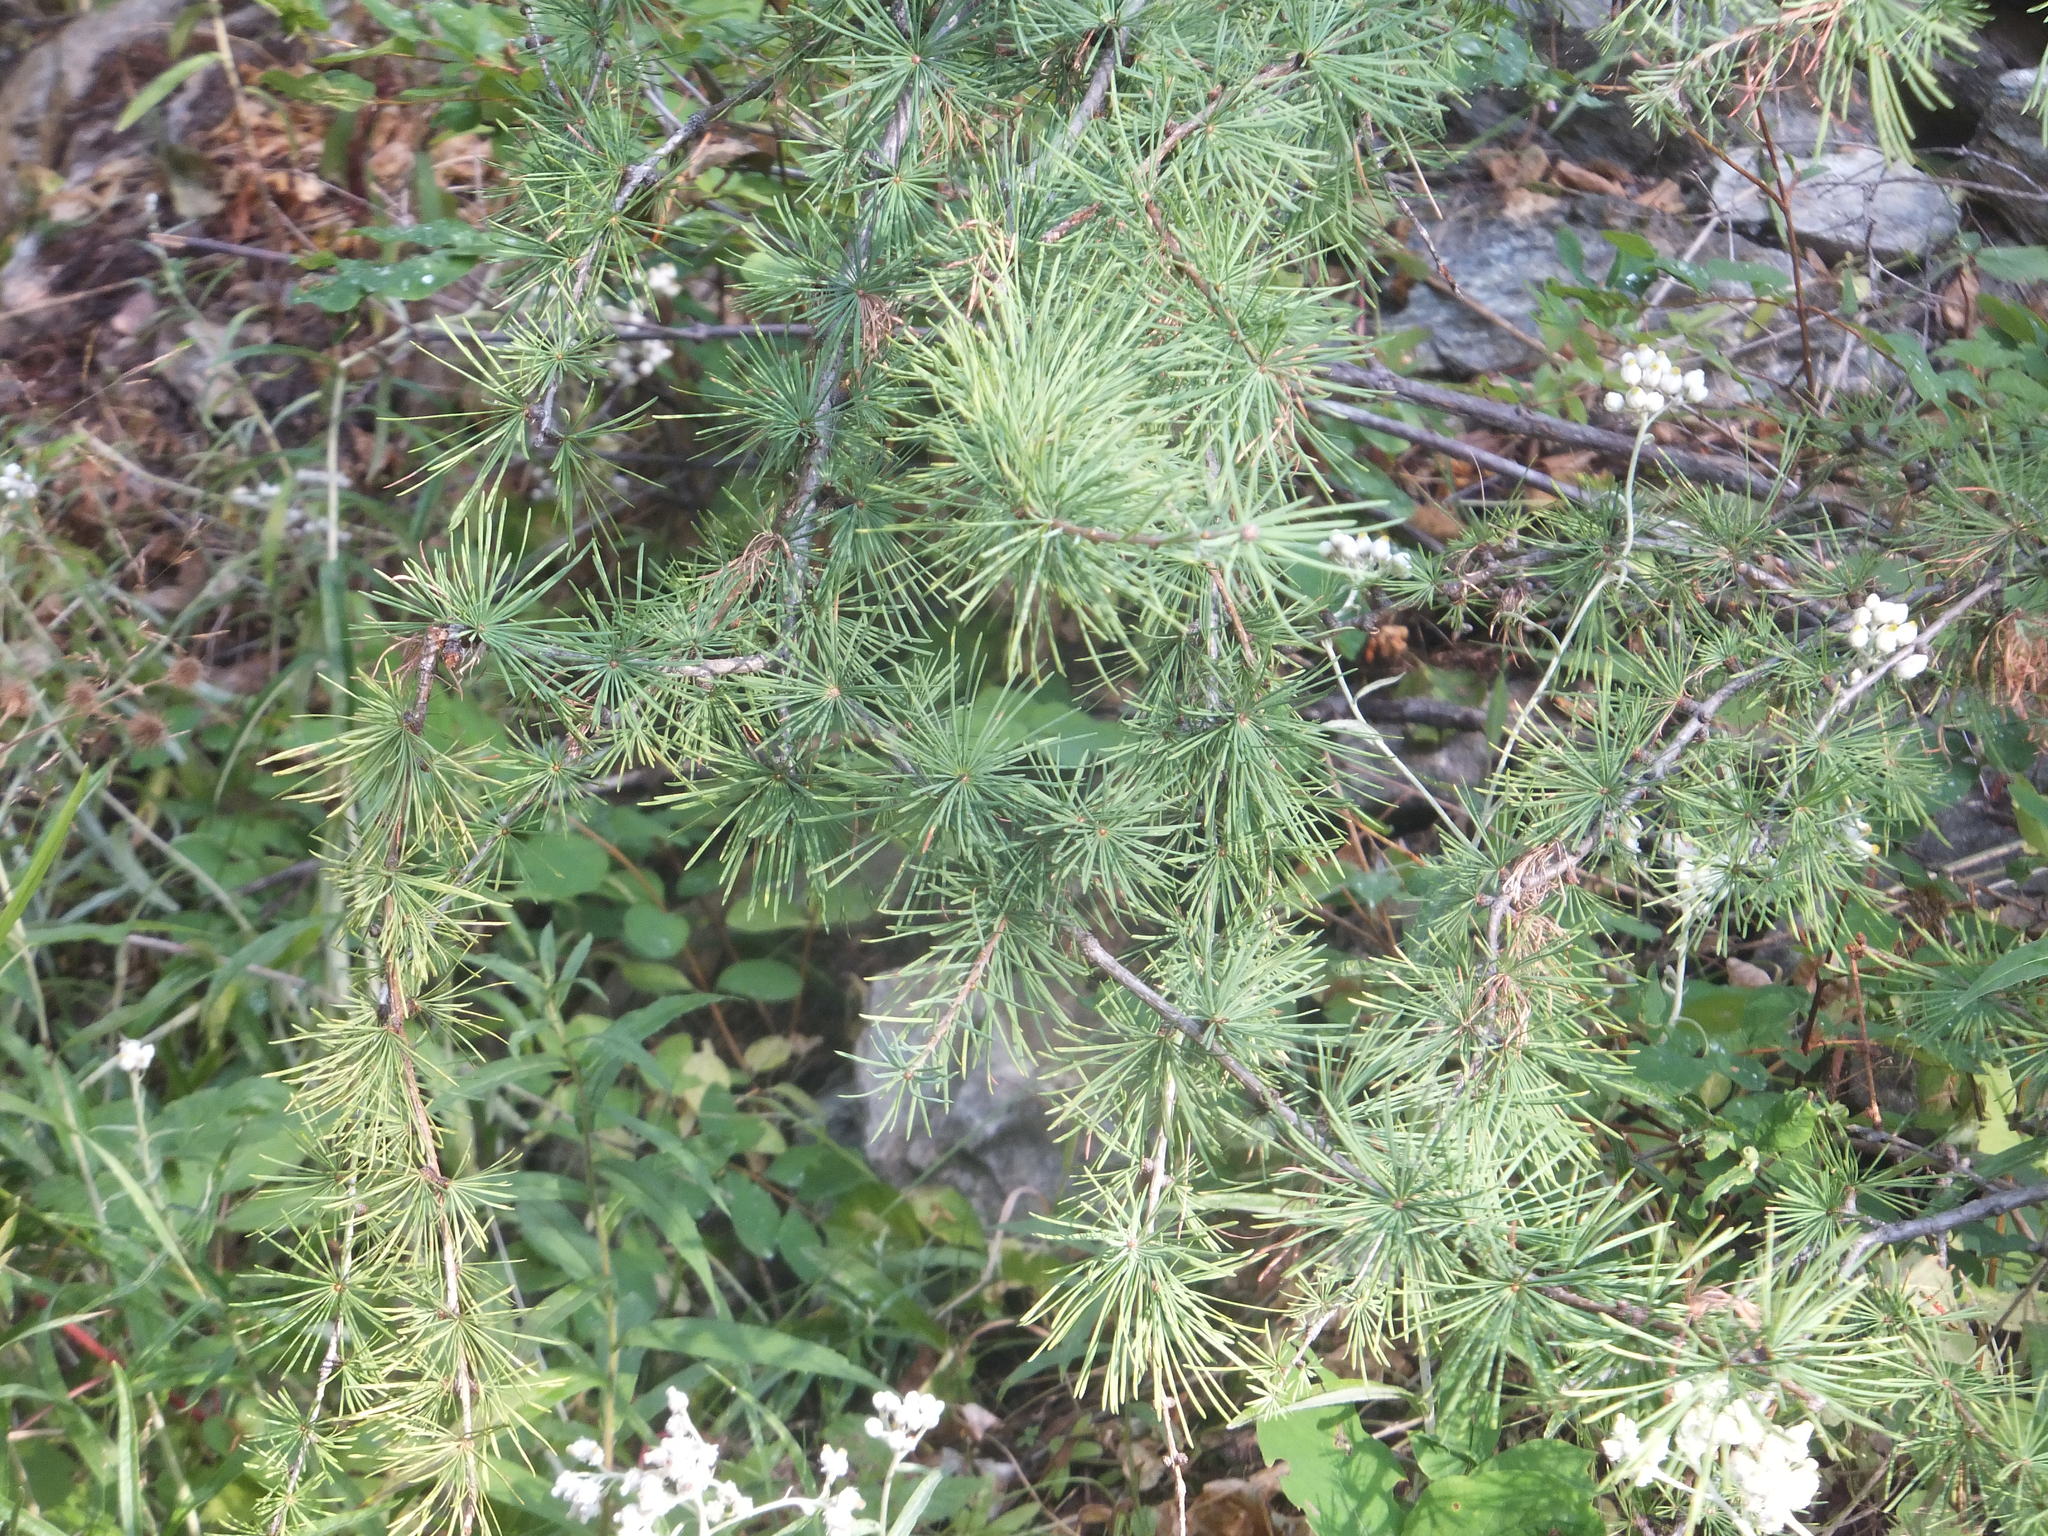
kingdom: Plantae
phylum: Tracheophyta
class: Pinopsida
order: Pinales
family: Pinaceae
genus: Larix
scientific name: Larix occidentalis
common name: Western larch
